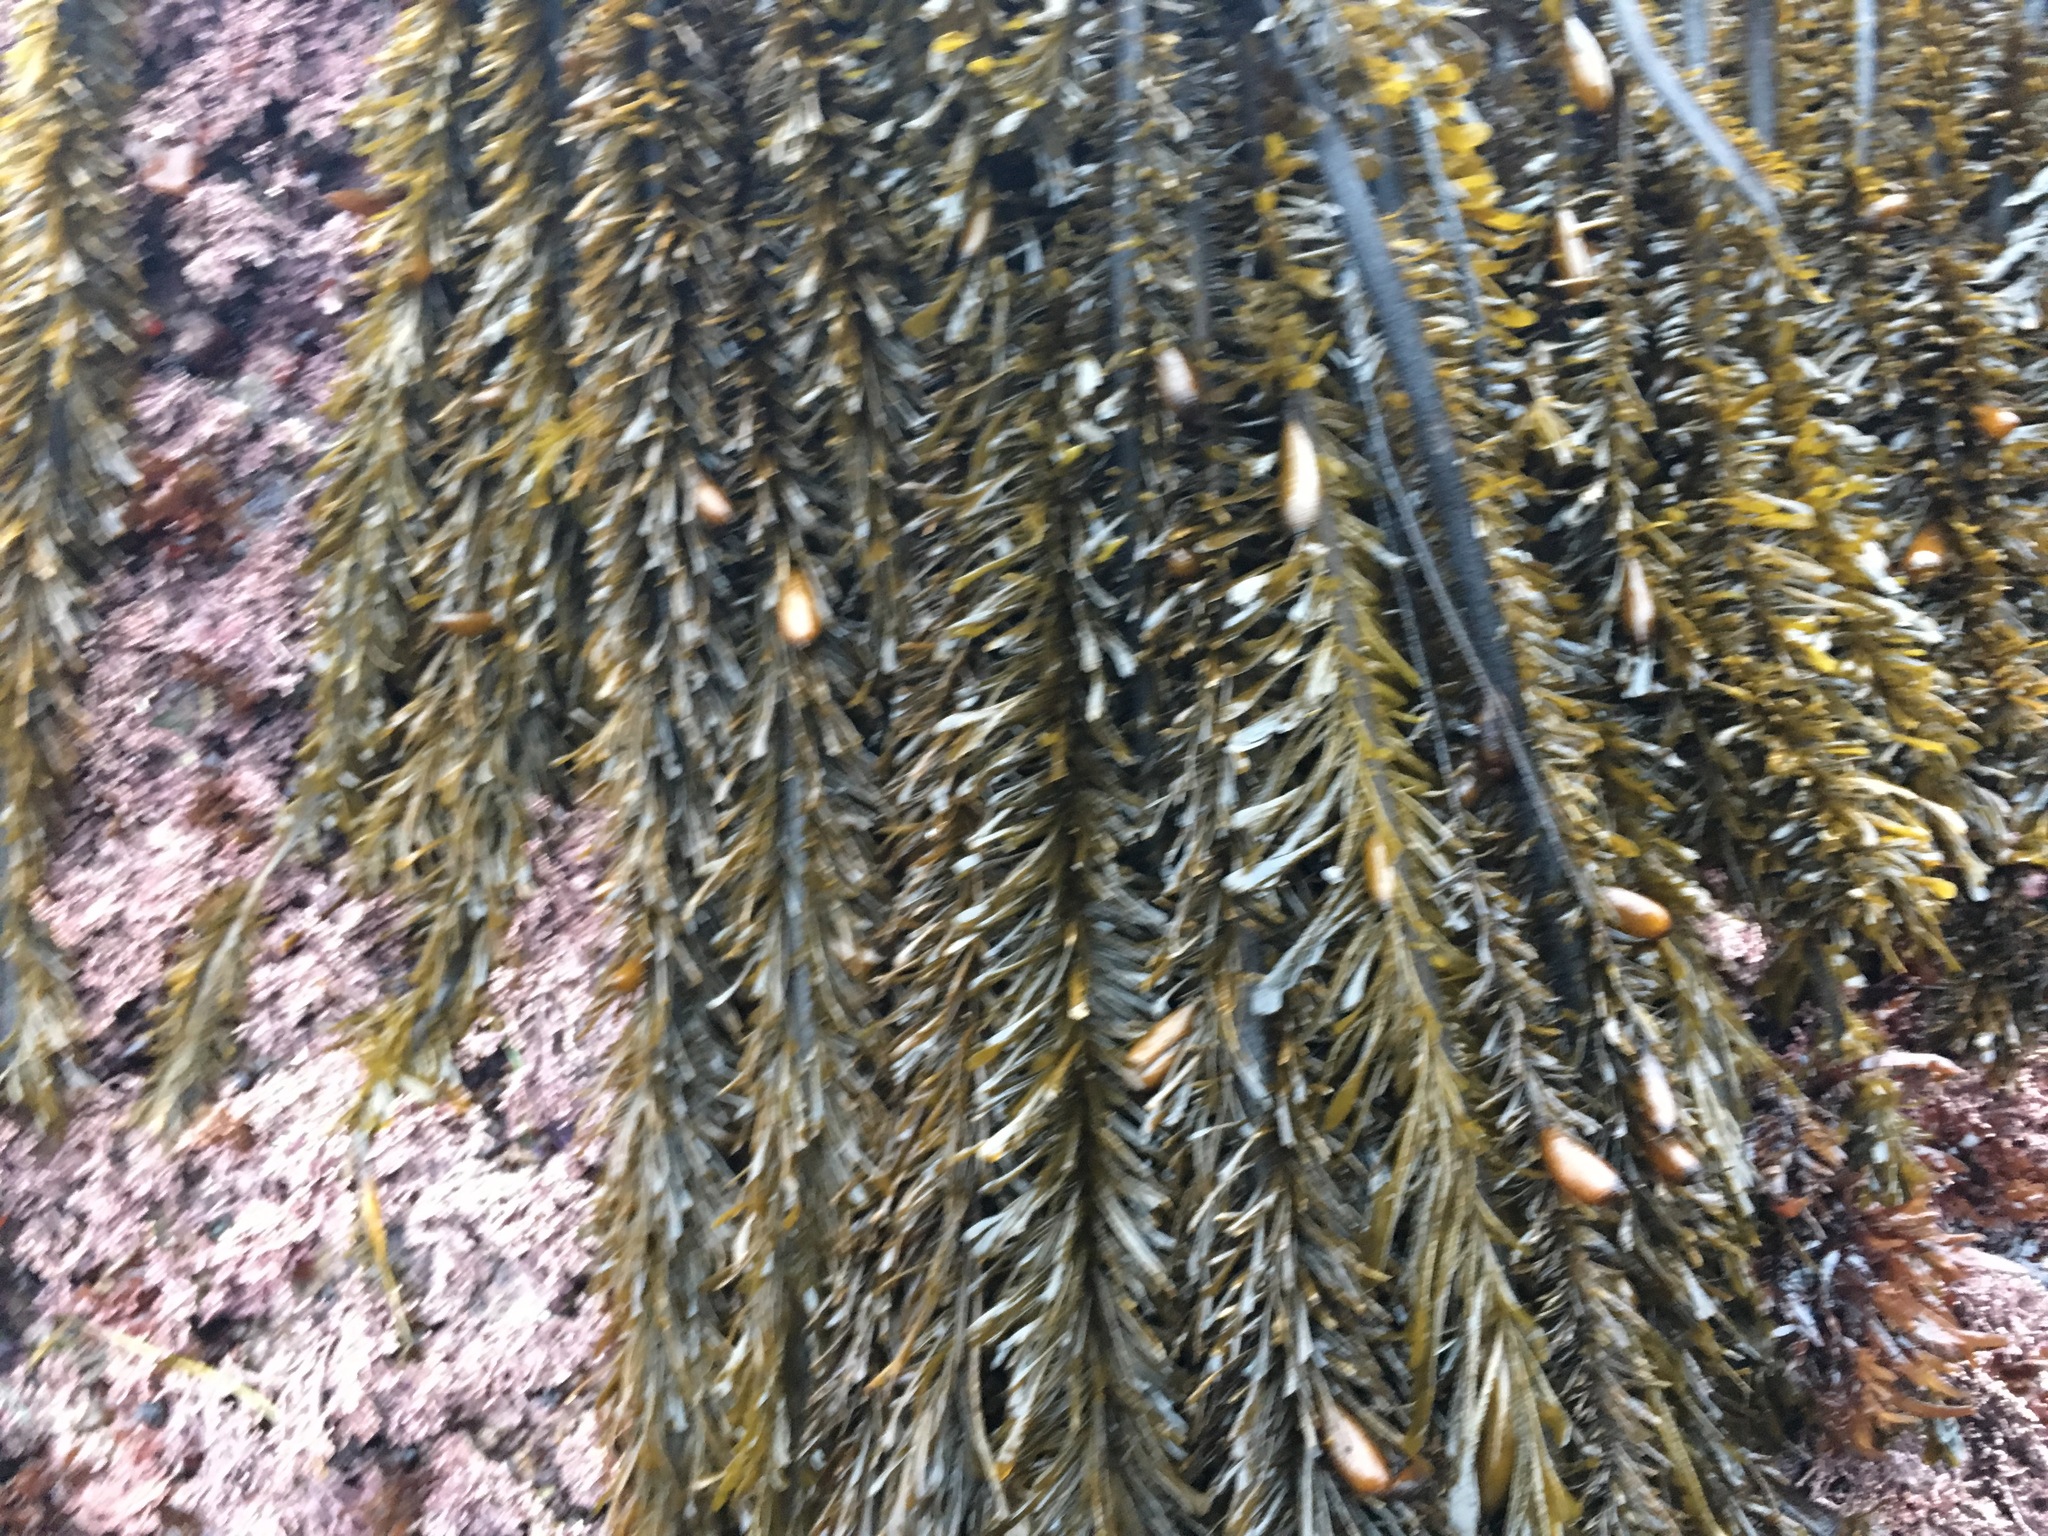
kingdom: Chromista
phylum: Ochrophyta
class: Phaeophyceae
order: Laminariales
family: Lessoniaceae
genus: Egregia
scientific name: Egregia menziesii
